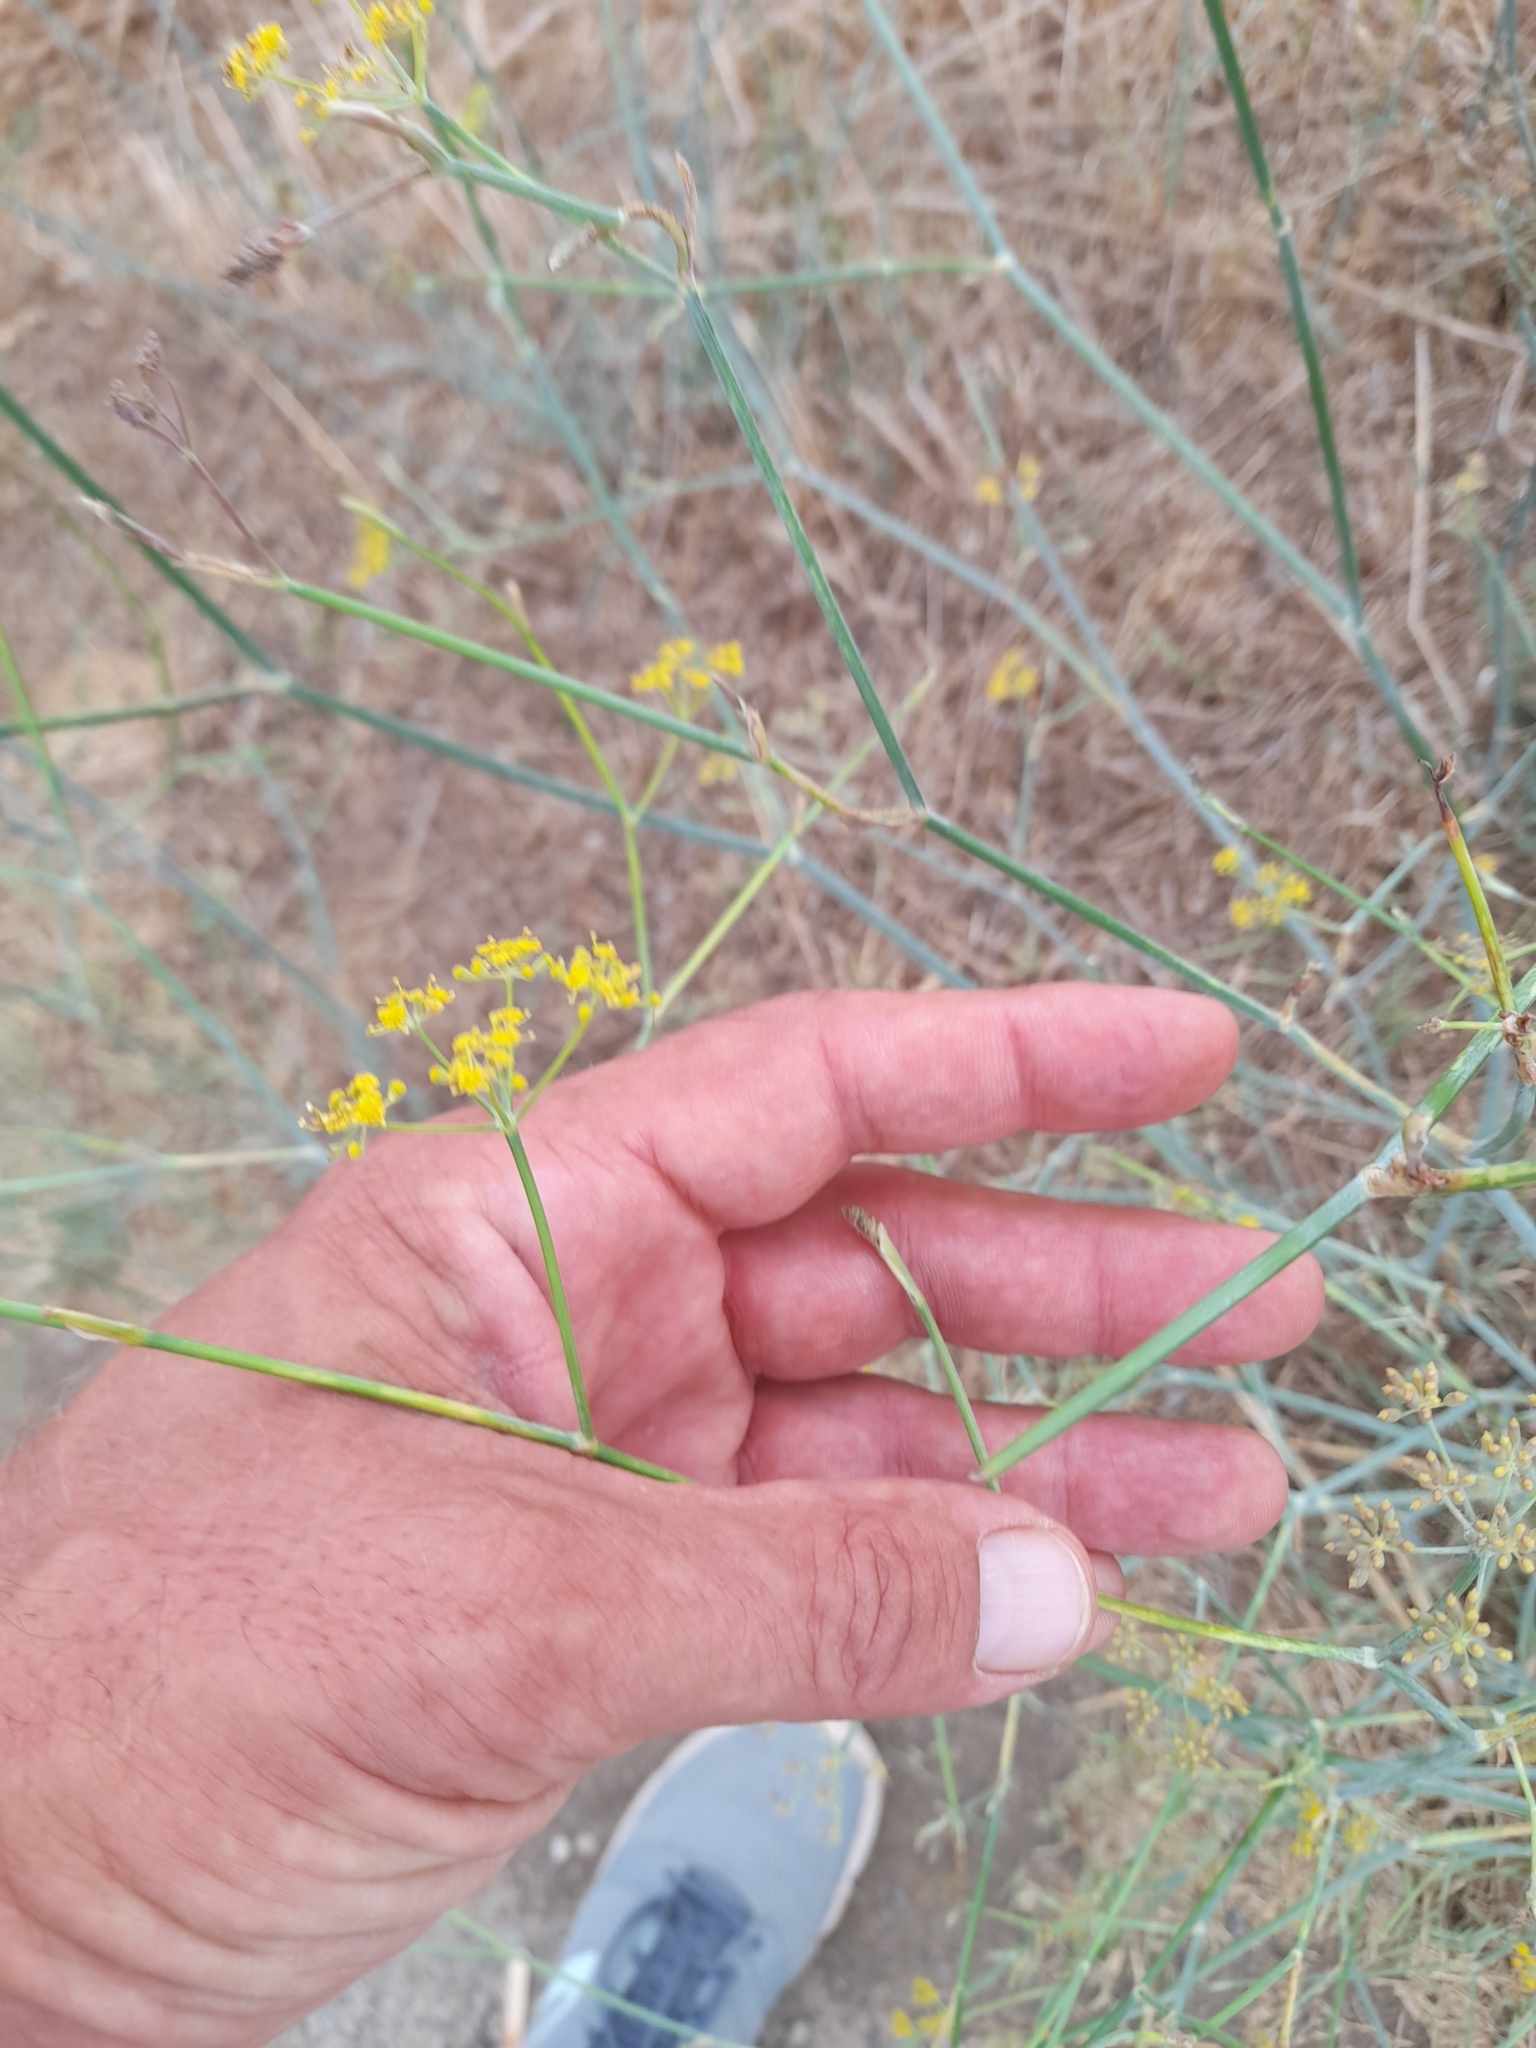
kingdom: Plantae
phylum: Tracheophyta
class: Magnoliopsida
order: Apiales
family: Apiaceae
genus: Foeniculum
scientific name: Foeniculum vulgare
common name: Fennel
